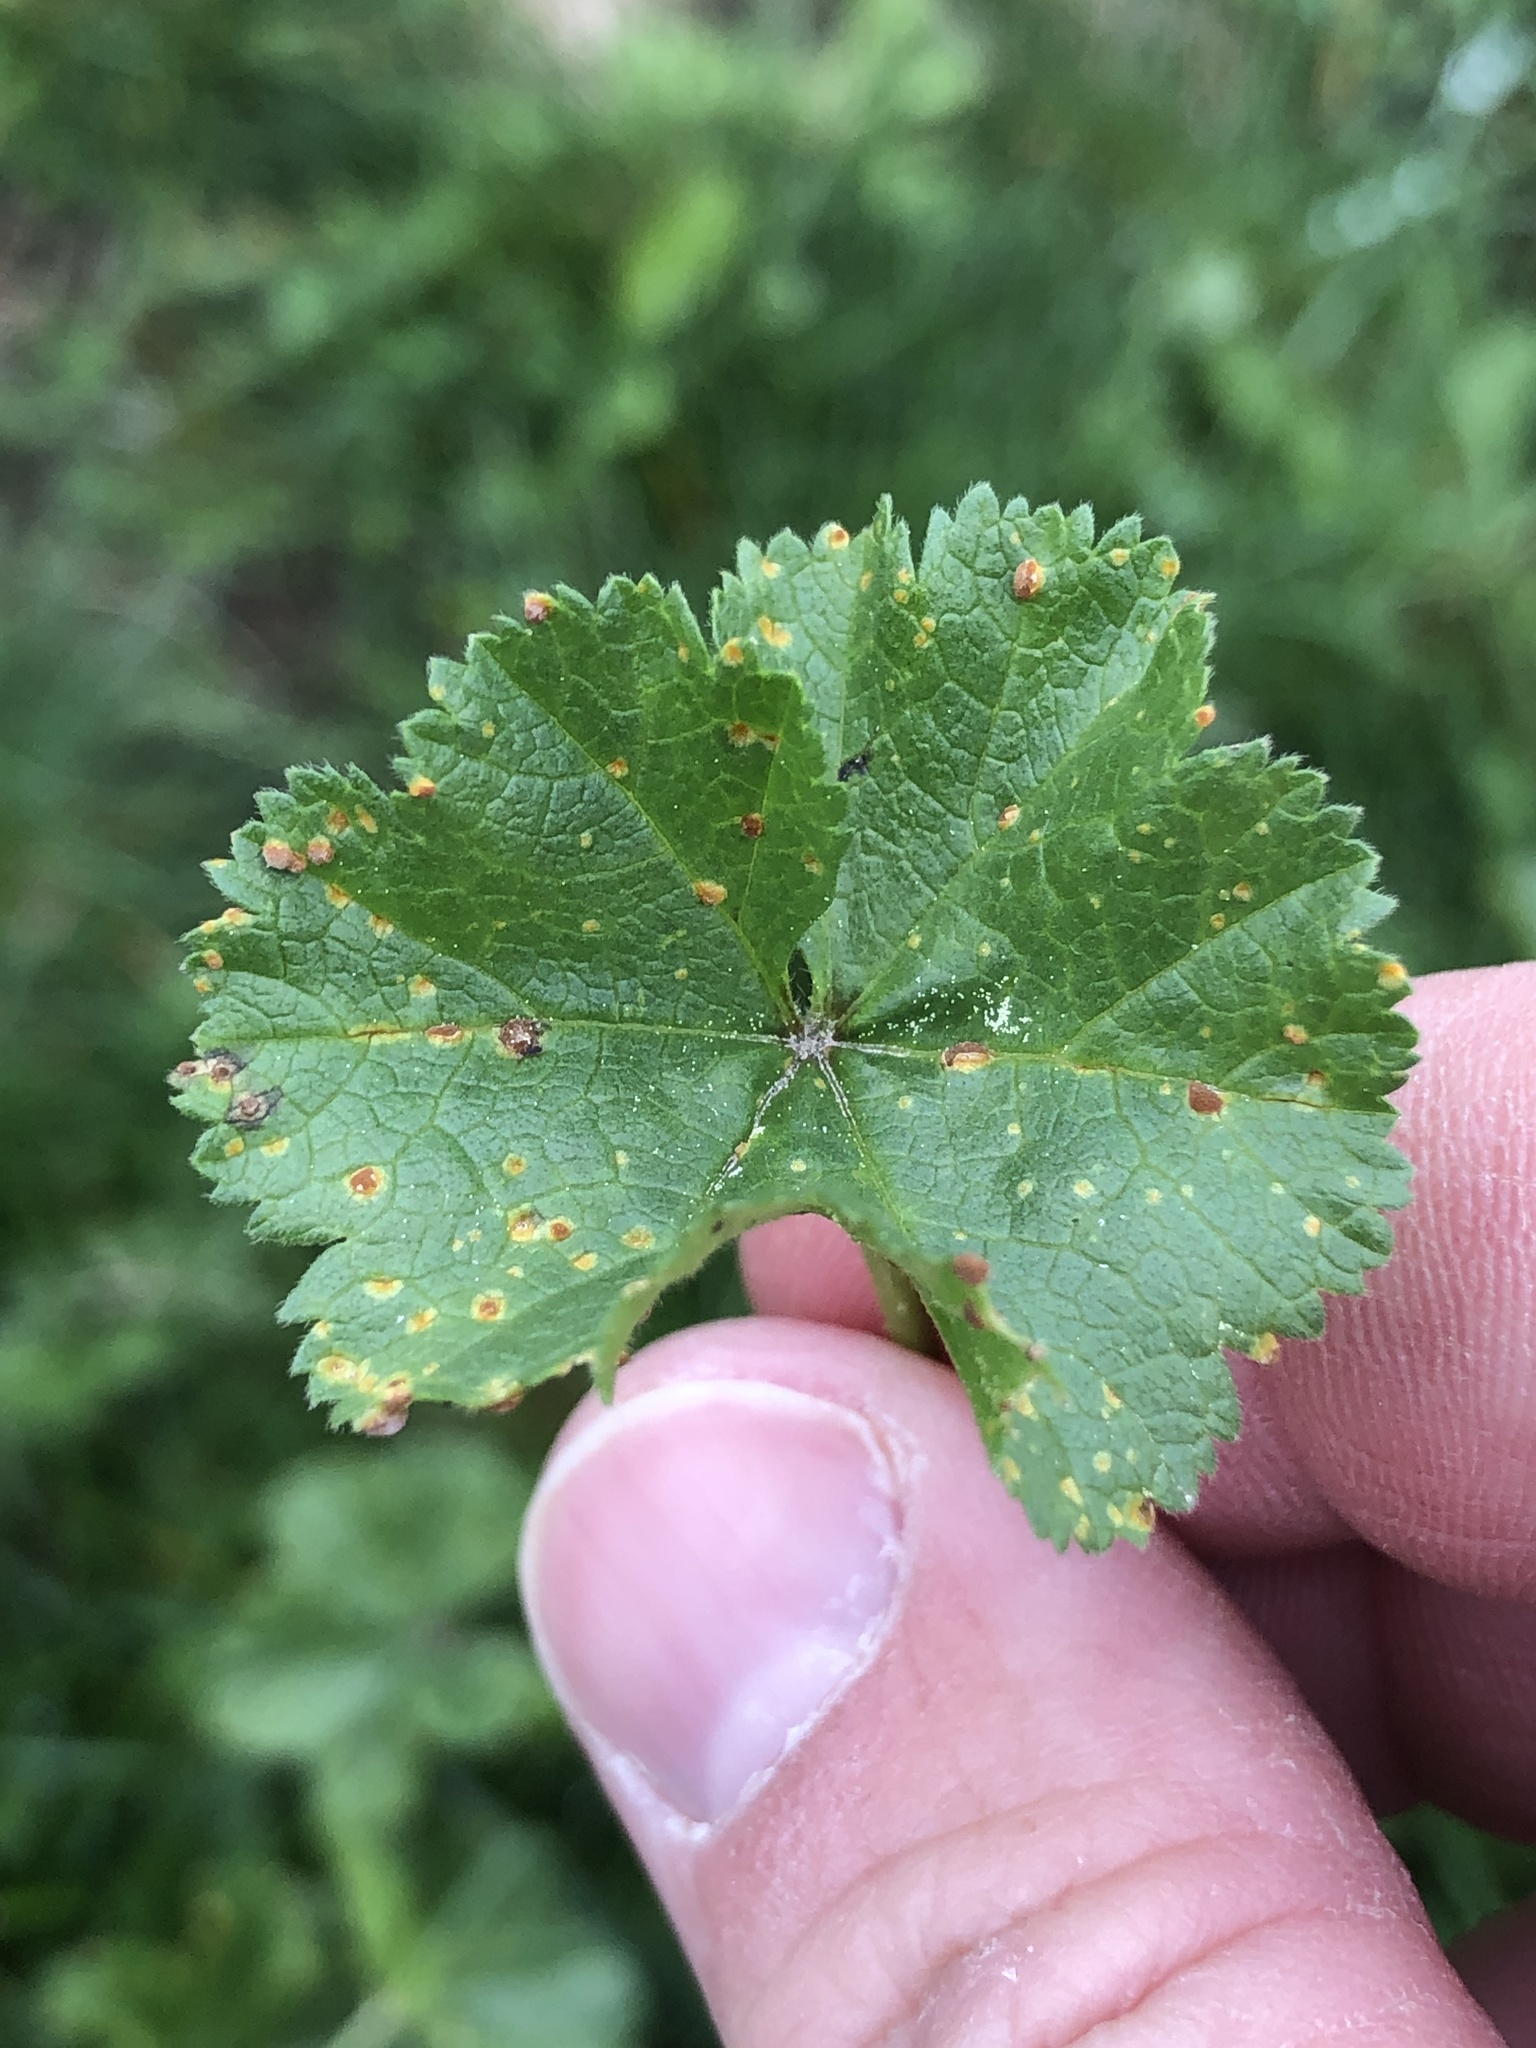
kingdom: Fungi
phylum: Basidiomycota
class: Pucciniomycetes
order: Pucciniales
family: Pucciniaceae
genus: Puccinia
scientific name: Puccinia malvacearum
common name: Hollyhock rust
